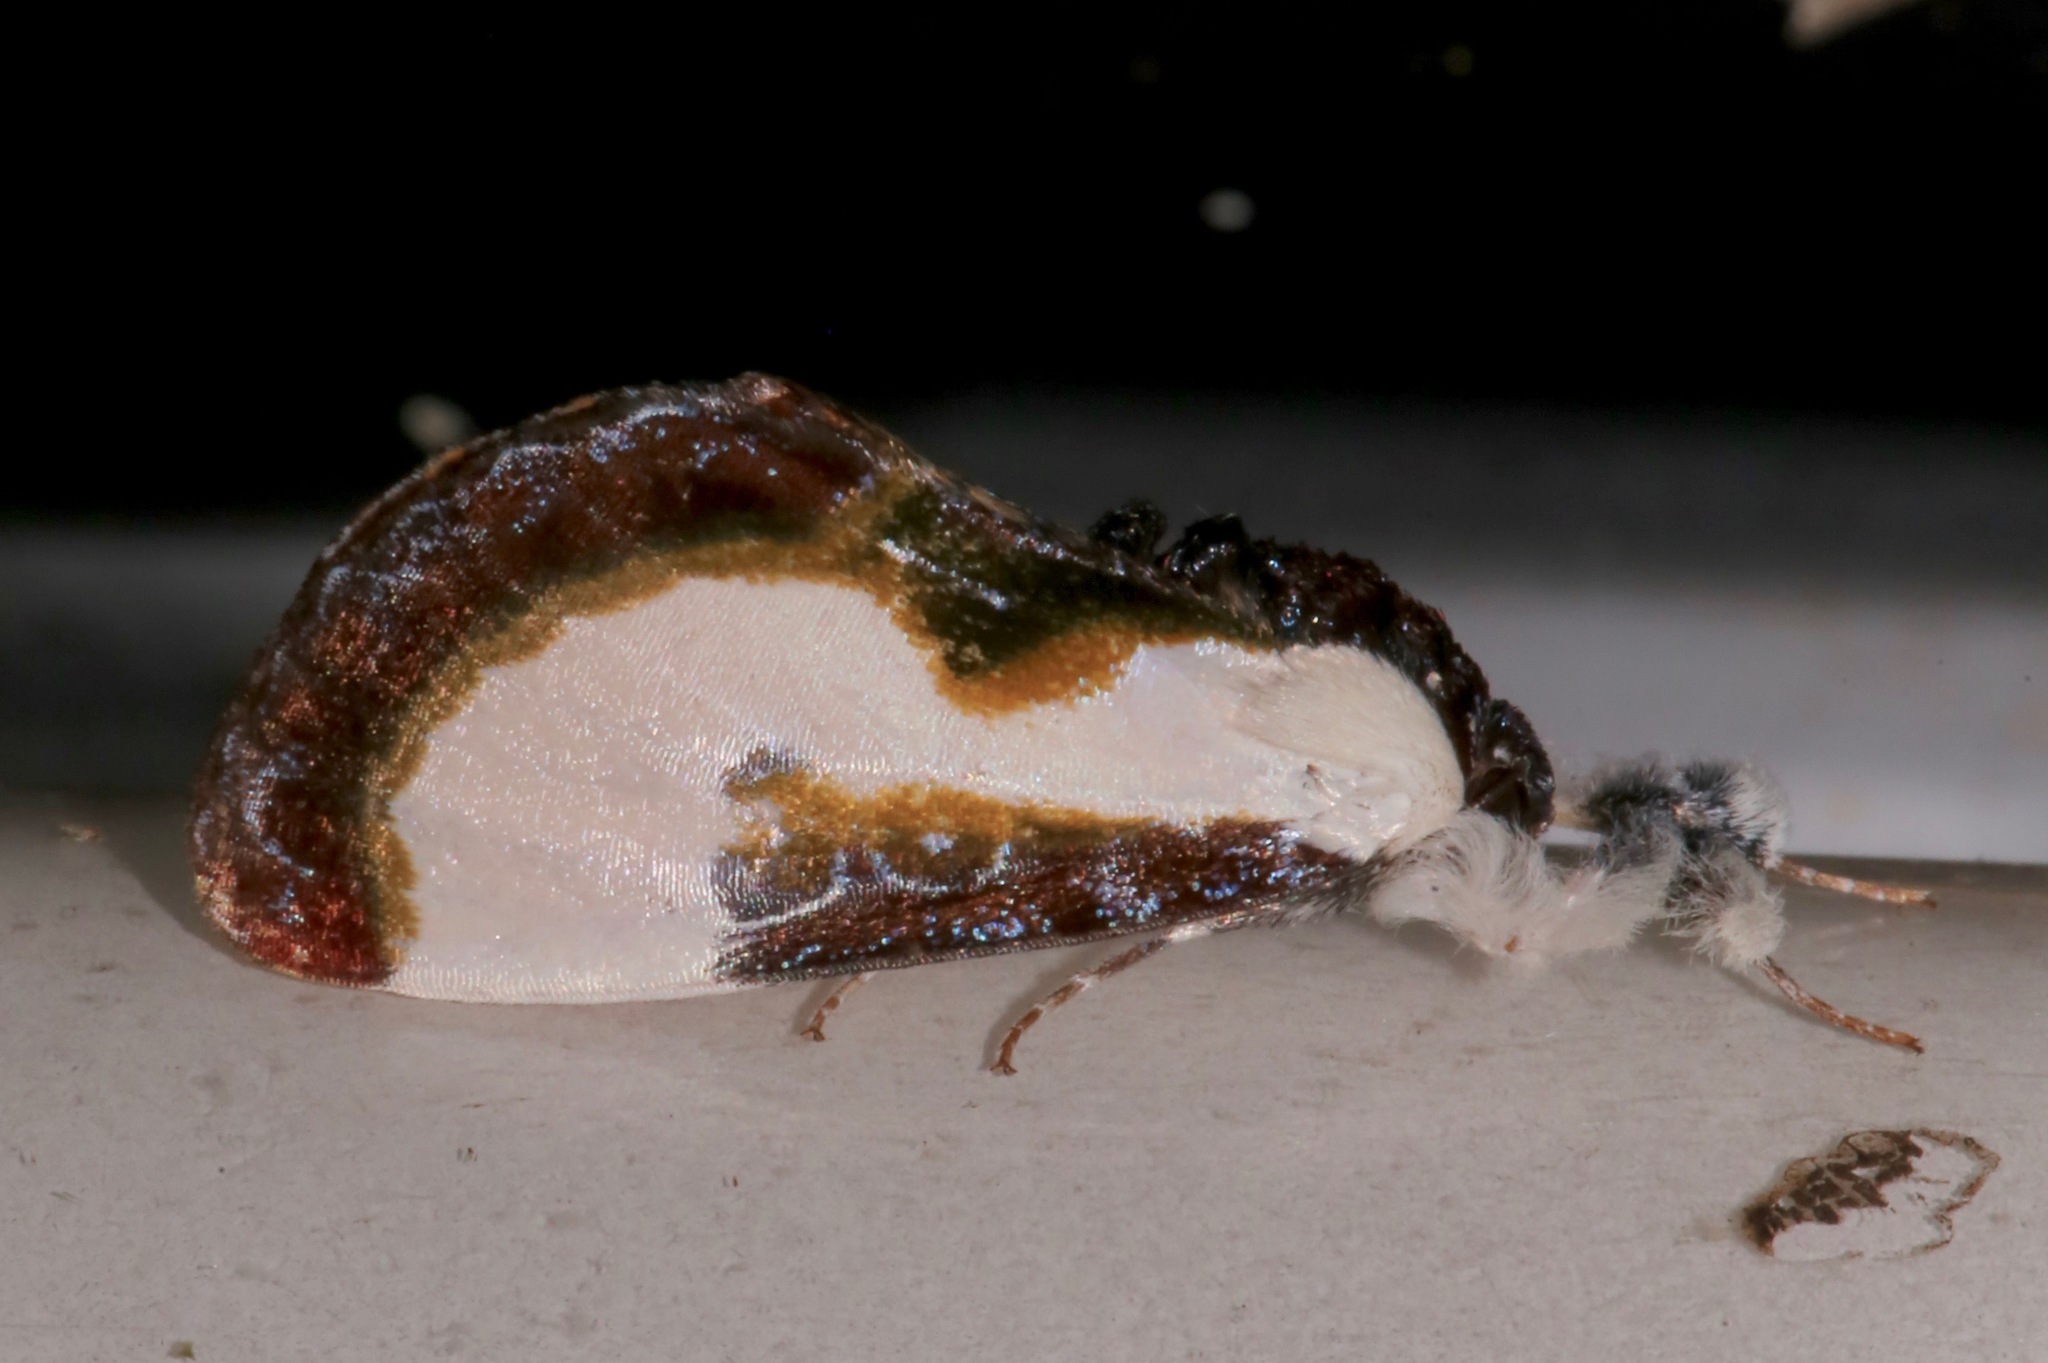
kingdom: Animalia
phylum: Arthropoda
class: Insecta
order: Lepidoptera
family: Noctuidae
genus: Eudryas
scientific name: Eudryas grata
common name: Beautiful wood-nymph
